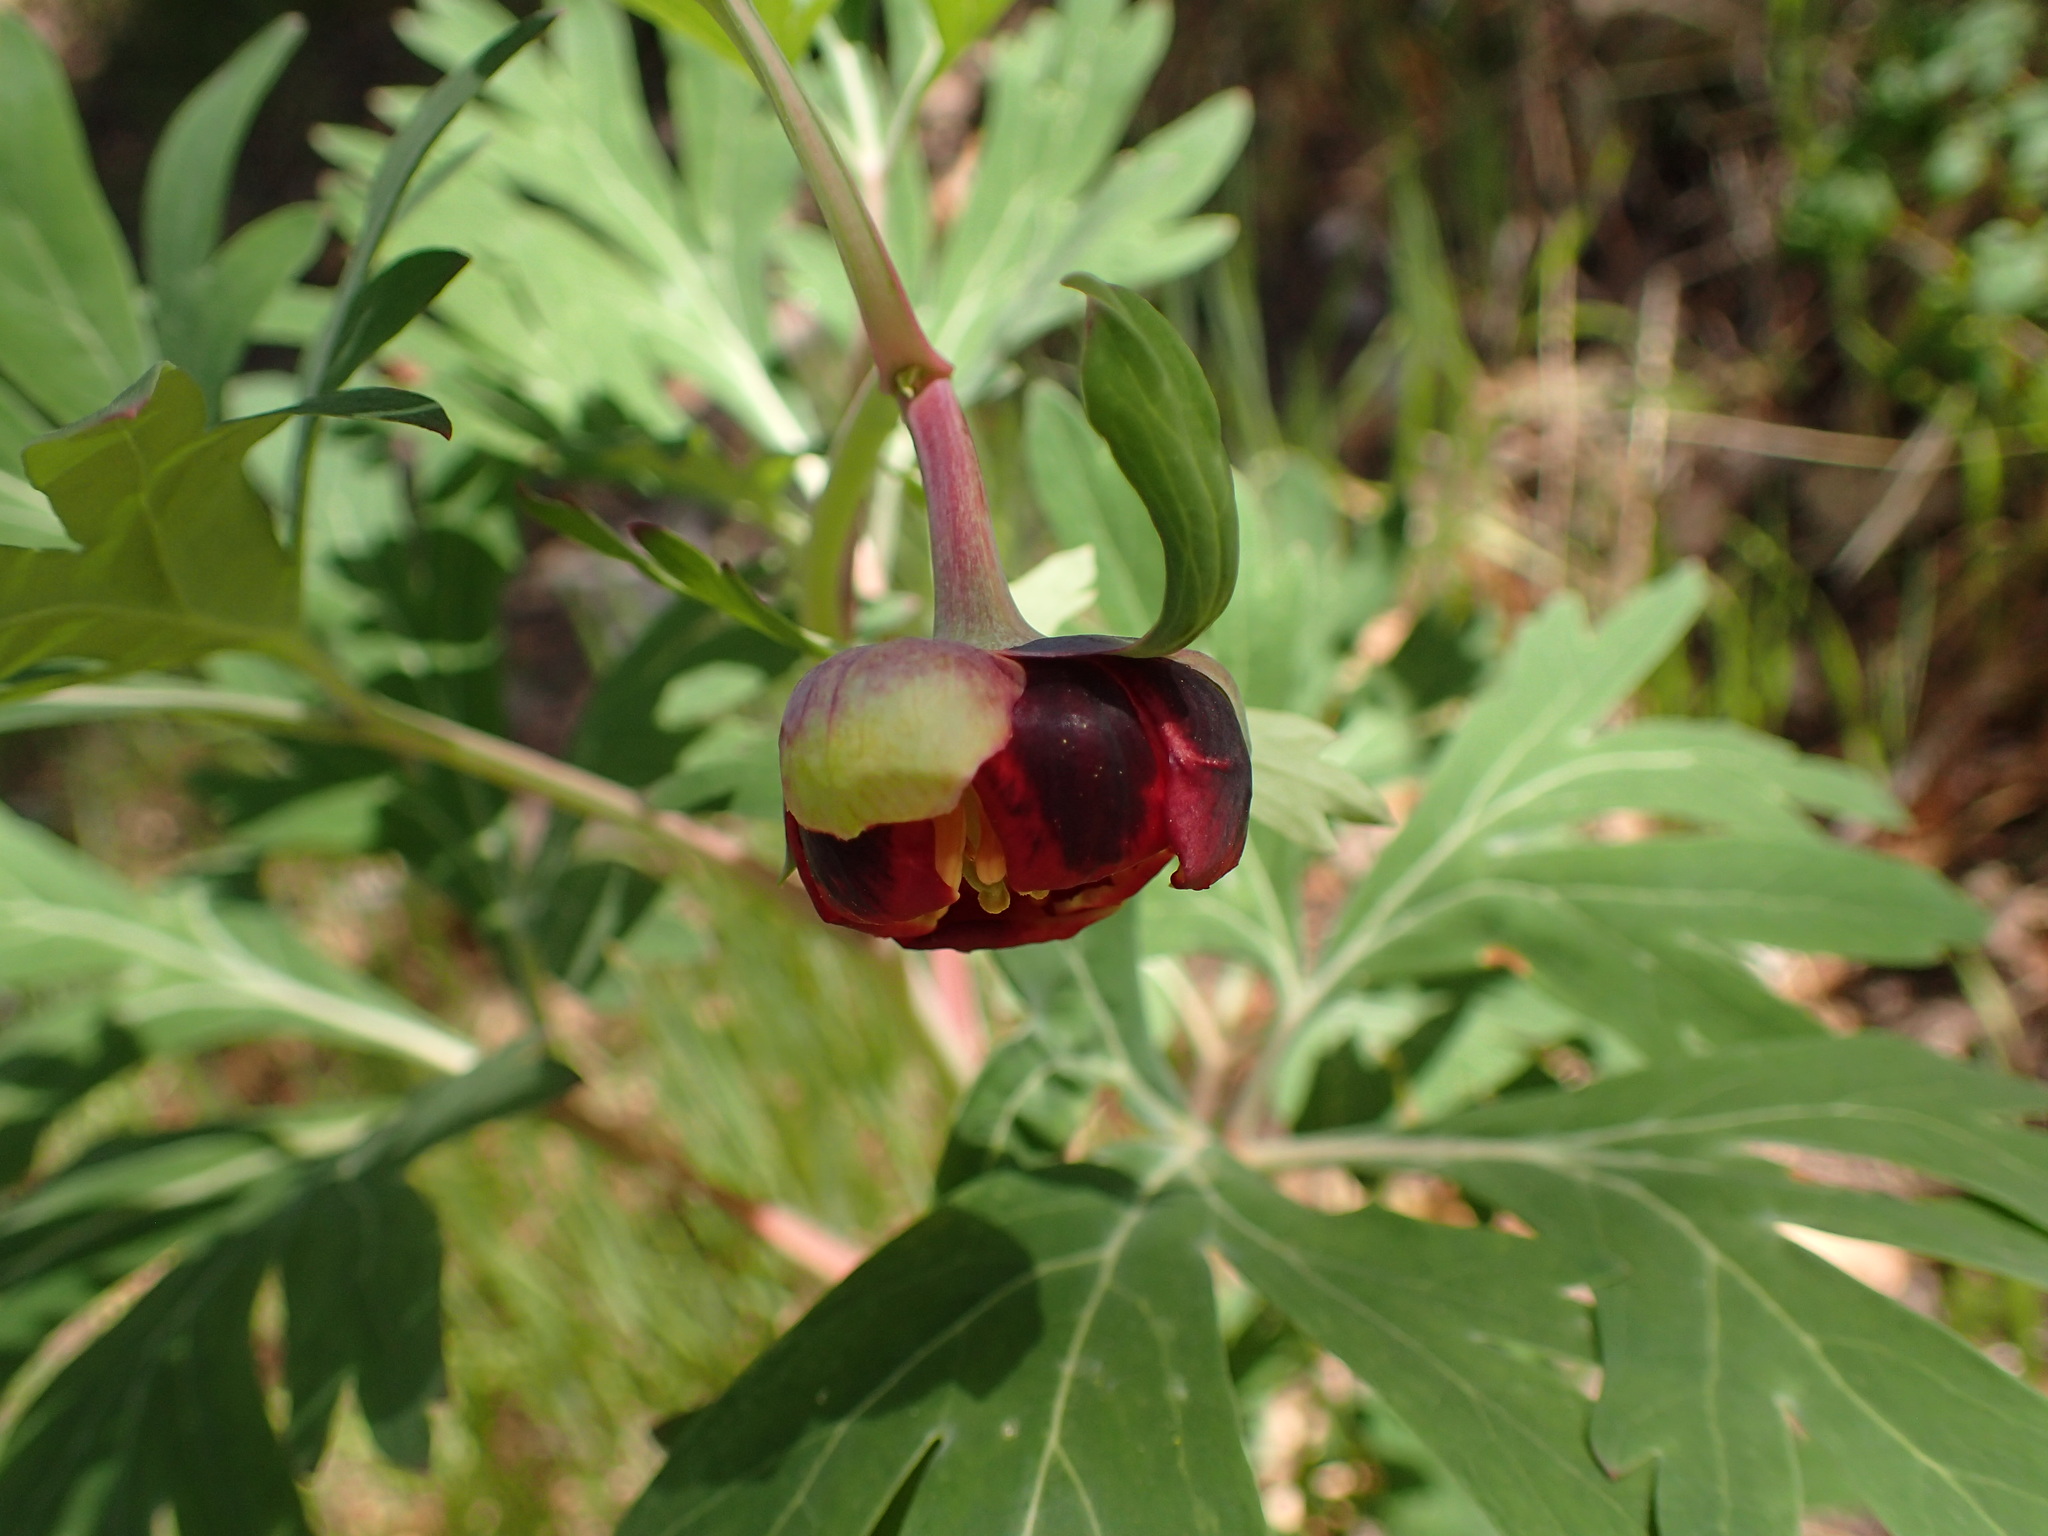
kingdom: Plantae
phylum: Tracheophyta
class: Magnoliopsida
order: Saxifragales
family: Paeoniaceae
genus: Paeonia
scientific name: Paeonia californica
